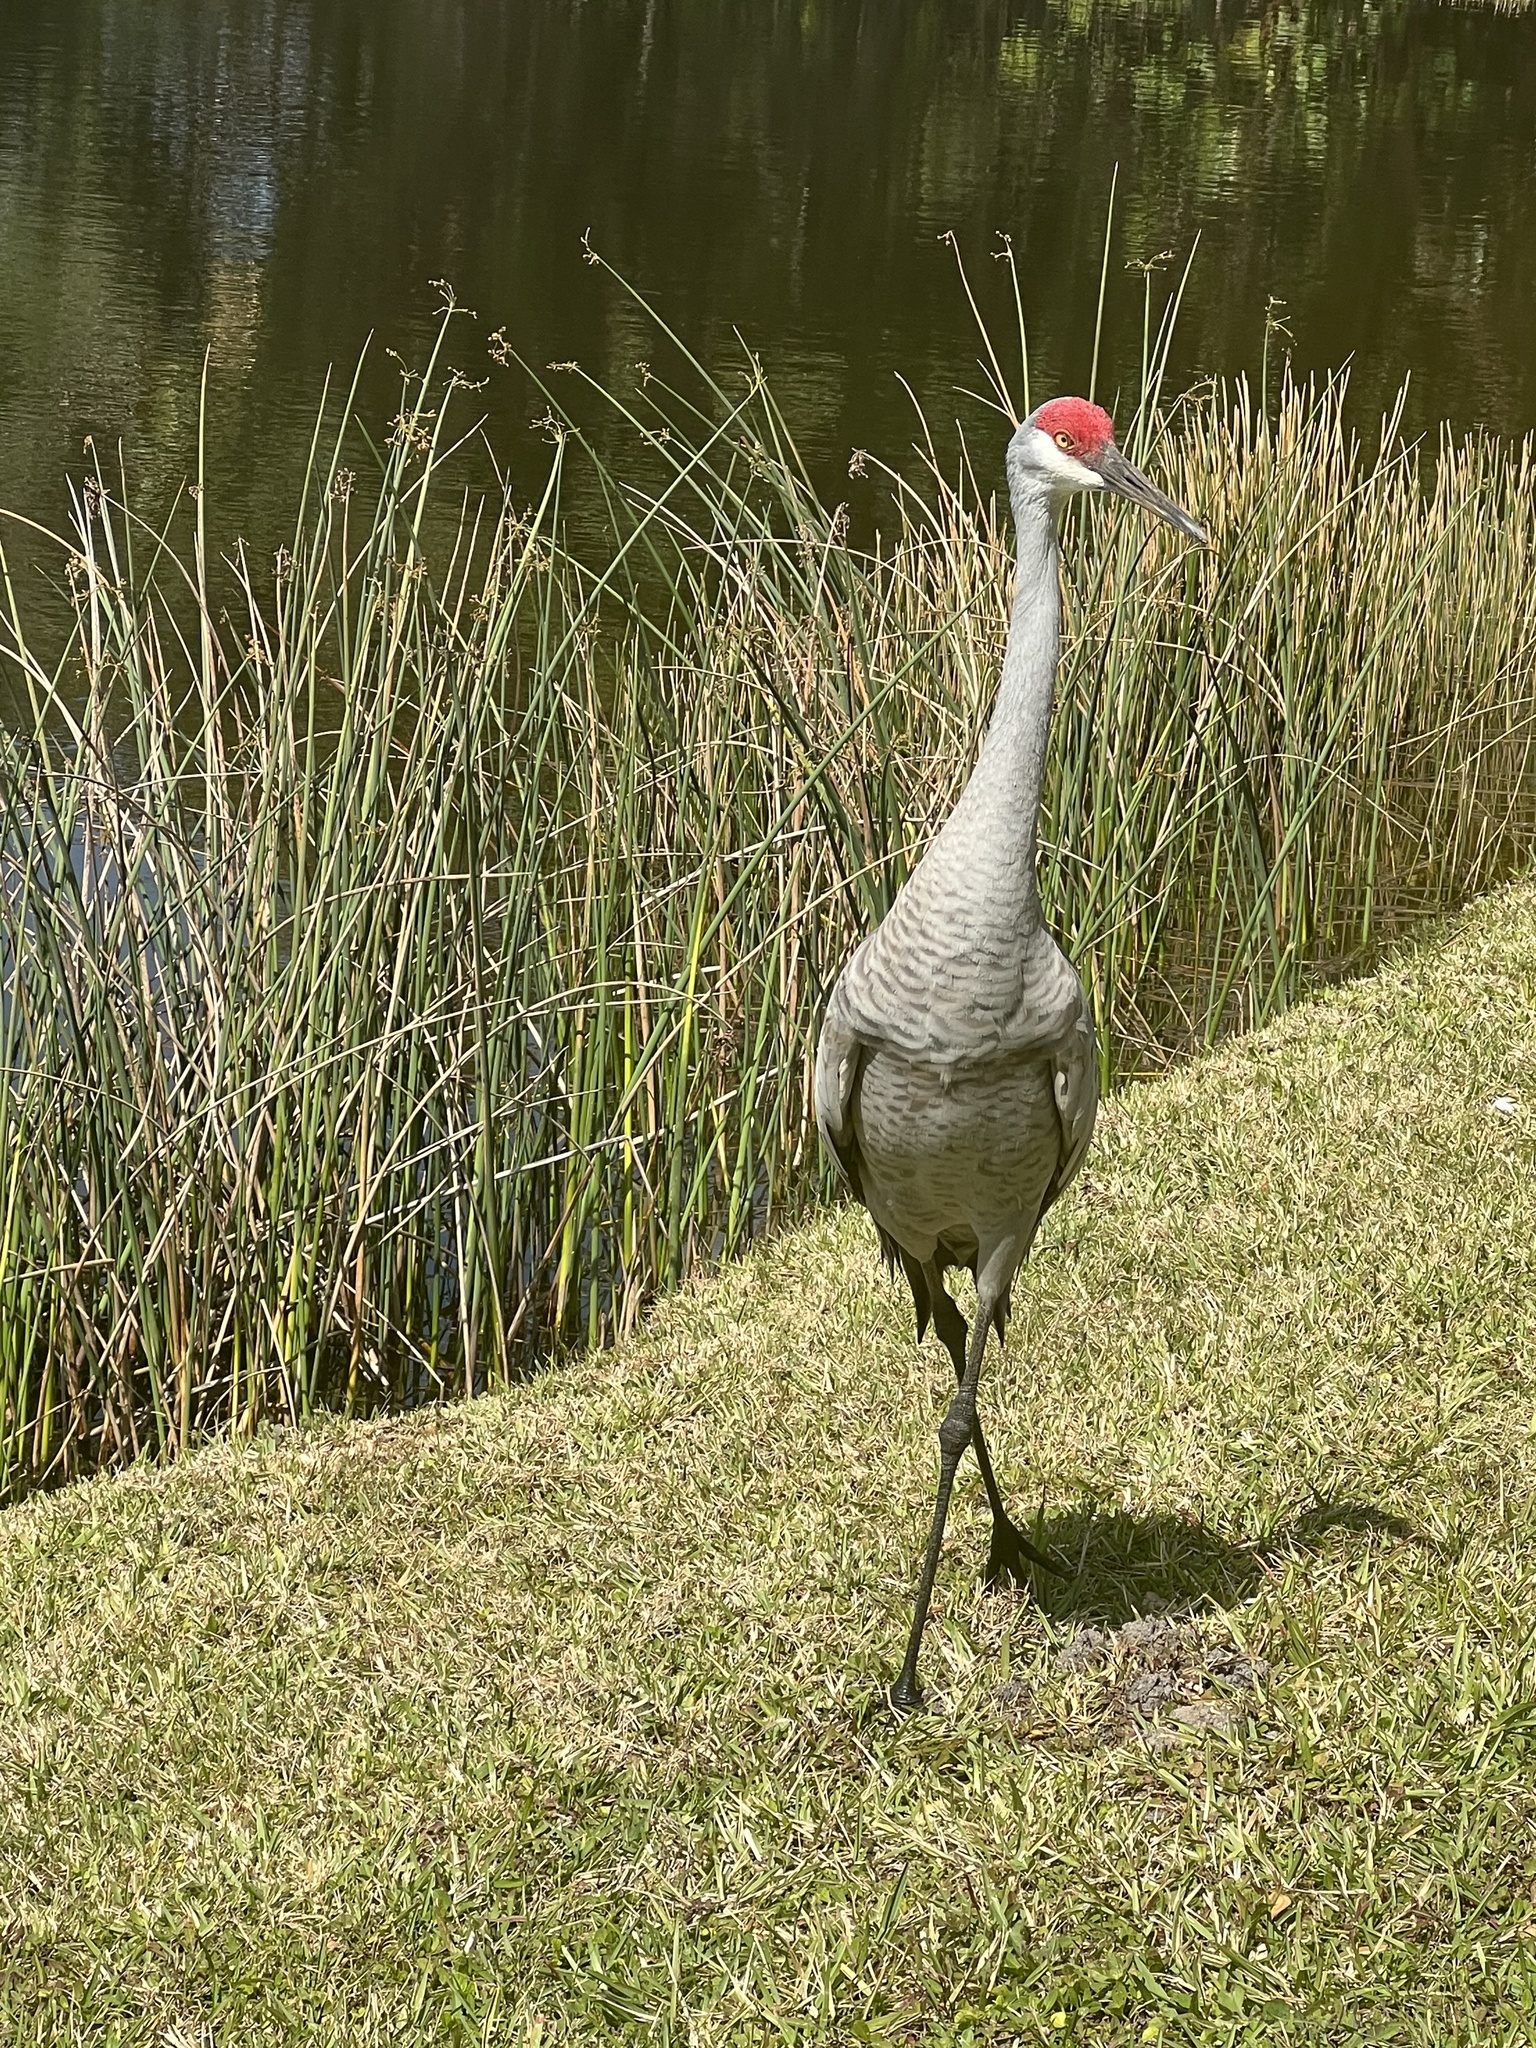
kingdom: Animalia
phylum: Chordata
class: Aves
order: Gruiformes
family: Gruidae
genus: Grus
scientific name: Grus canadensis
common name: Sandhill crane
